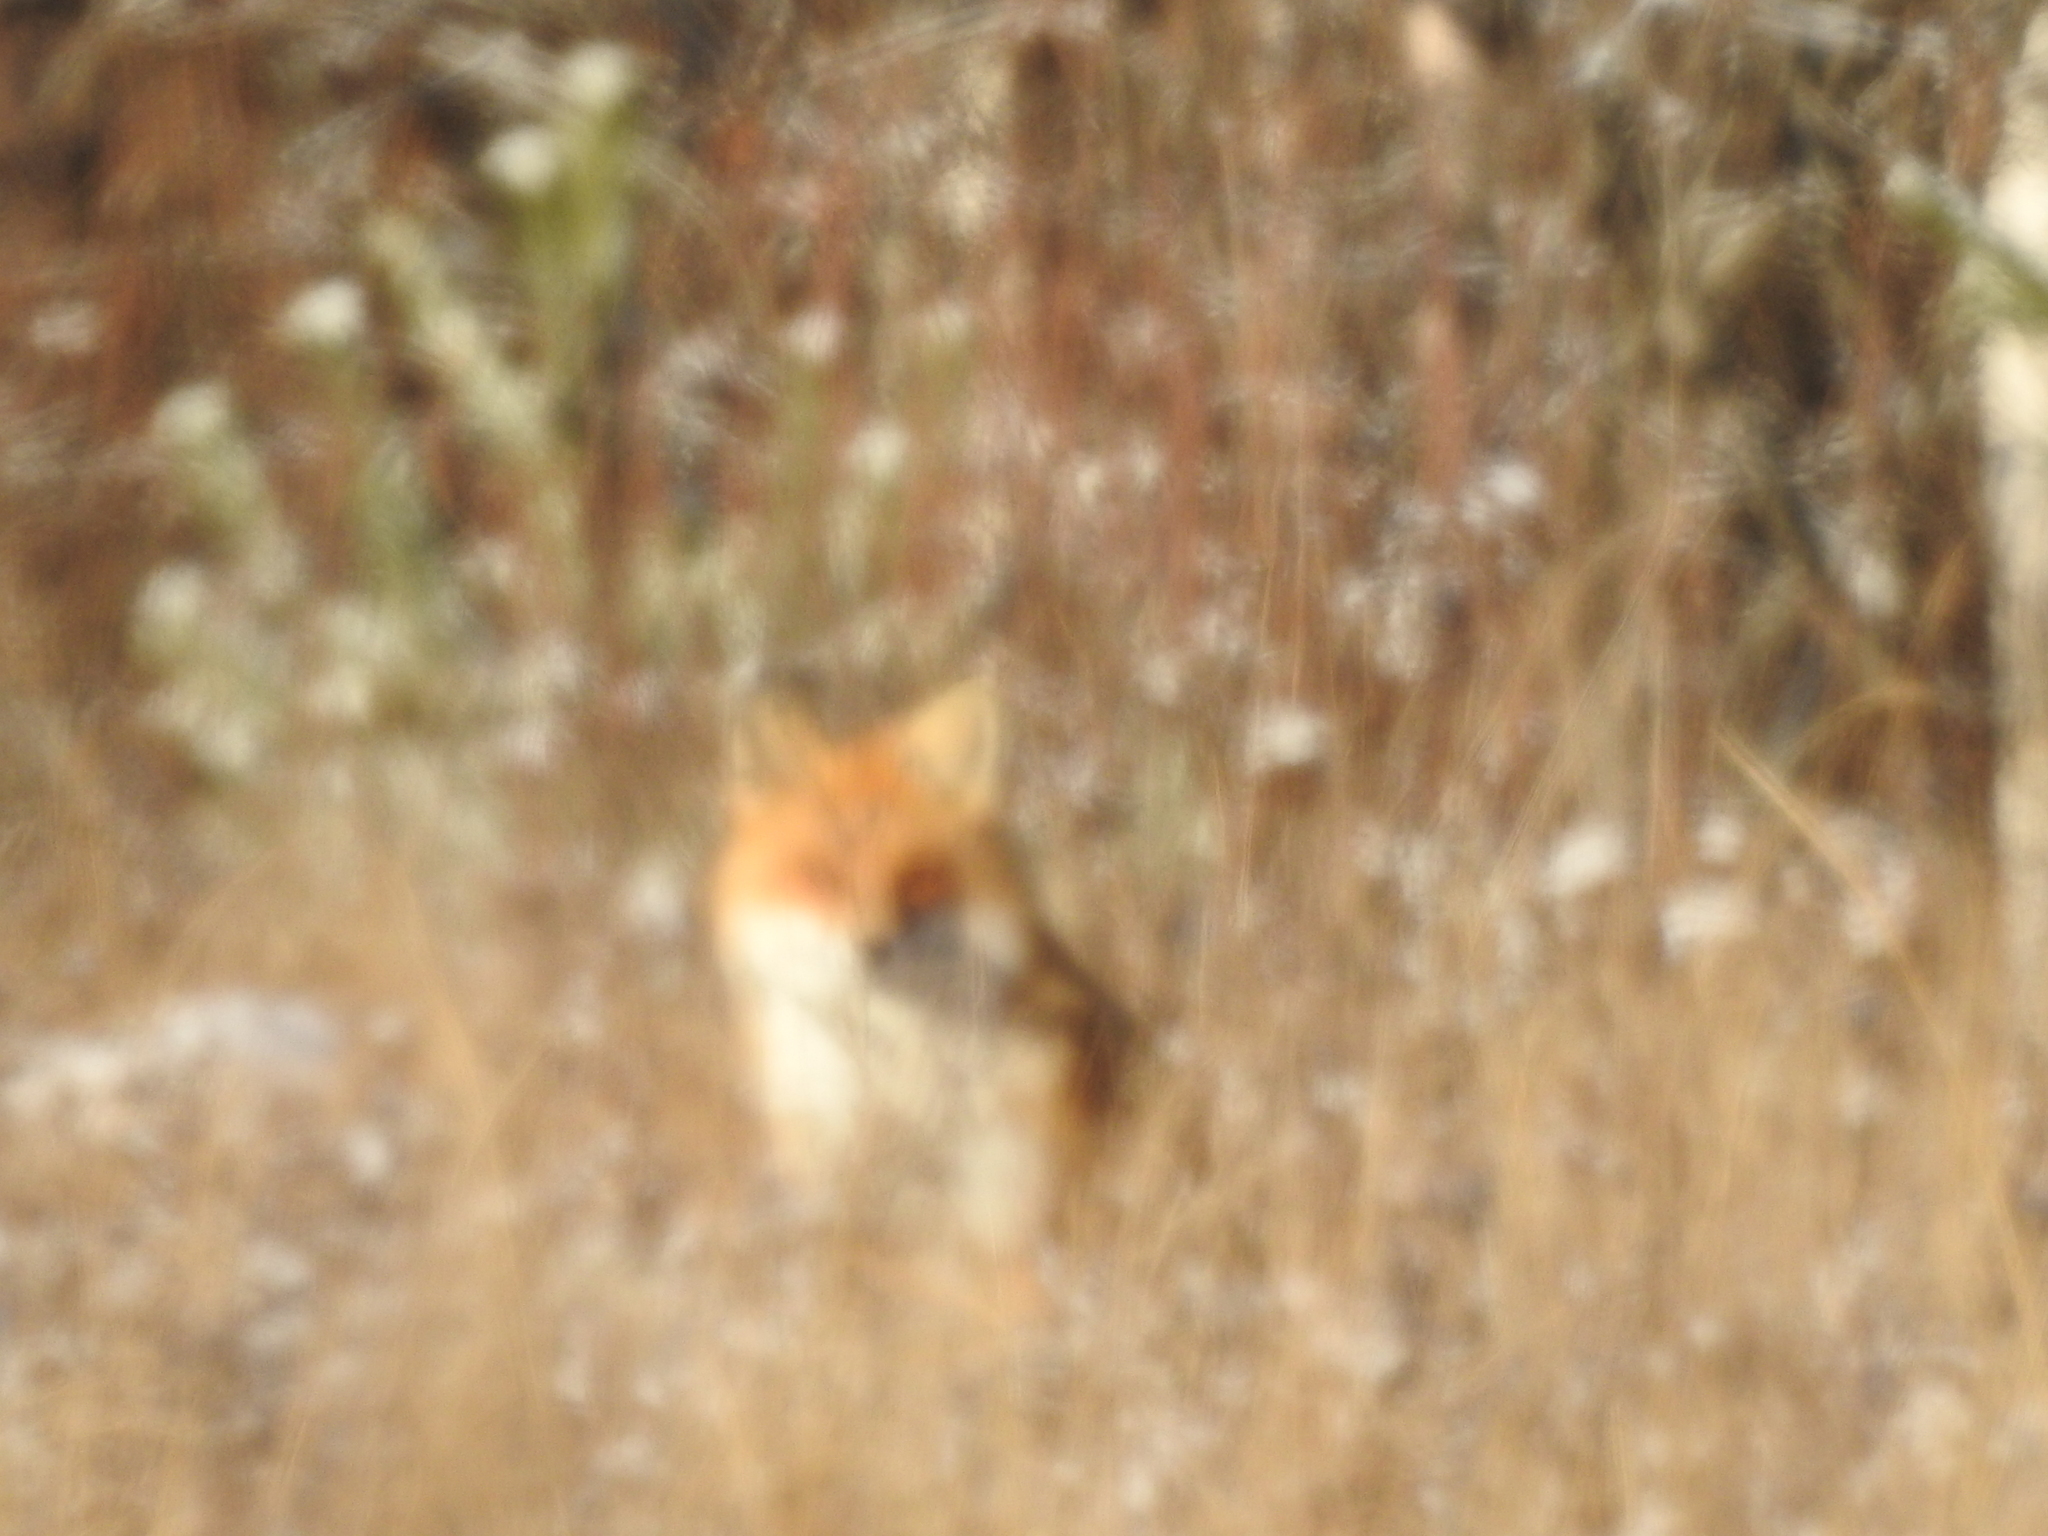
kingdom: Animalia
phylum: Chordata
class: Mammalia
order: Carnivora
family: Canidae
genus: Vulpes
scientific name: Vulpes vulpes
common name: Red fox
